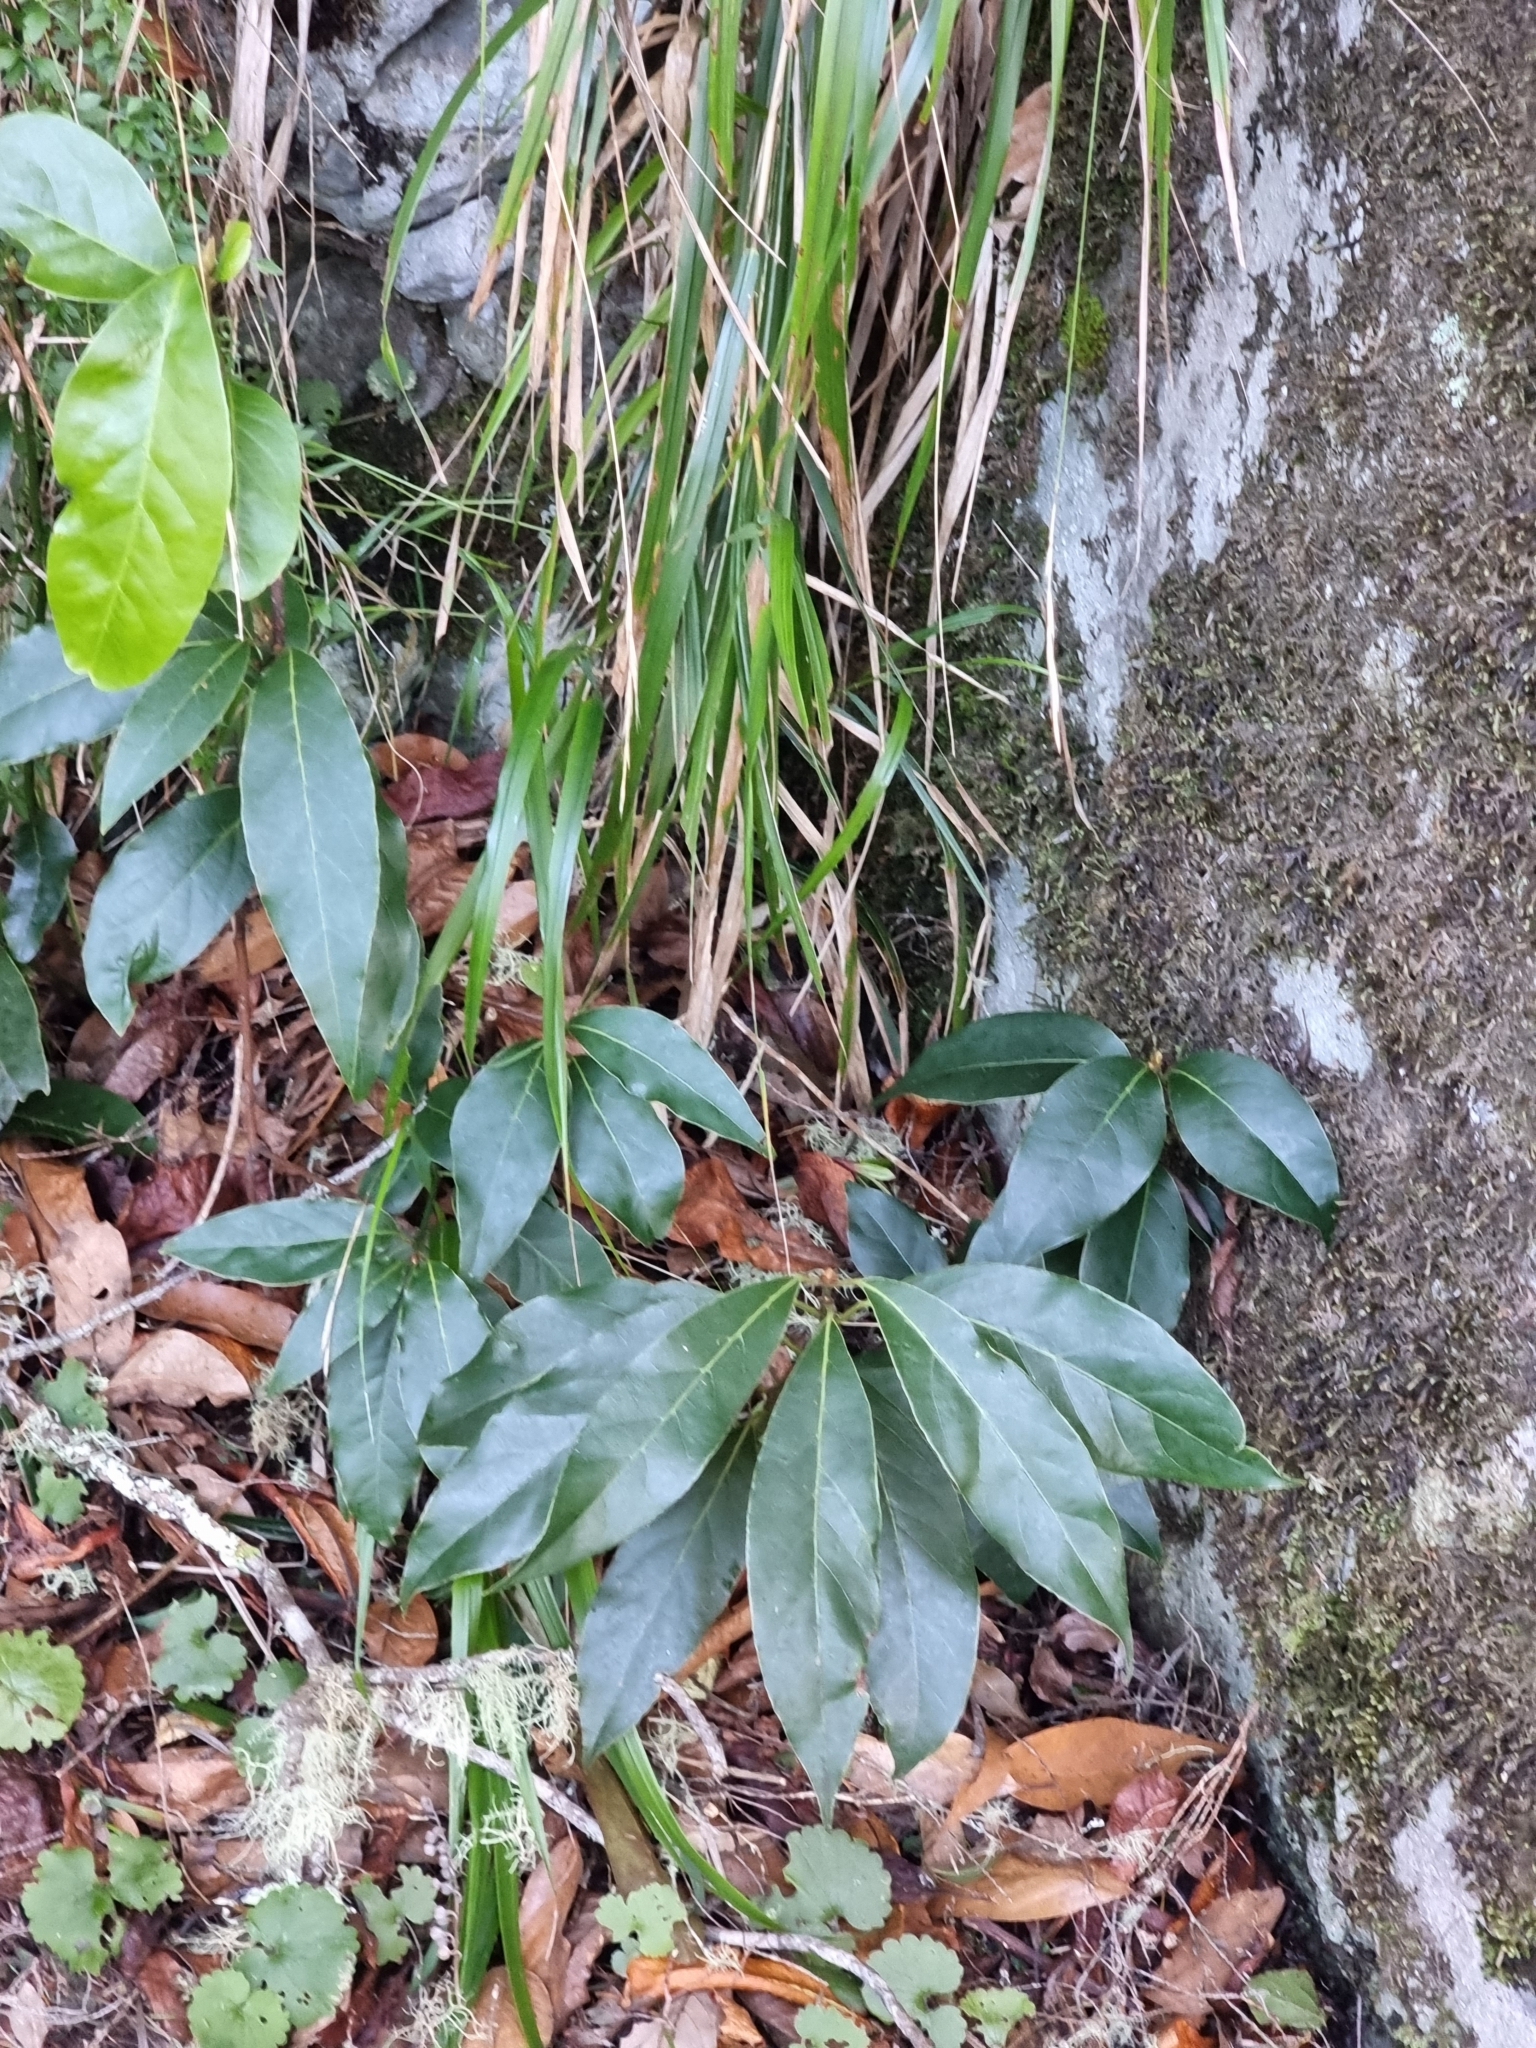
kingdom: Plantae
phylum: Tracheophyta
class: Magnoliopsida
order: Laurales
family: Lauraceae
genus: Laurus
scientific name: Laurus novocanariensis
